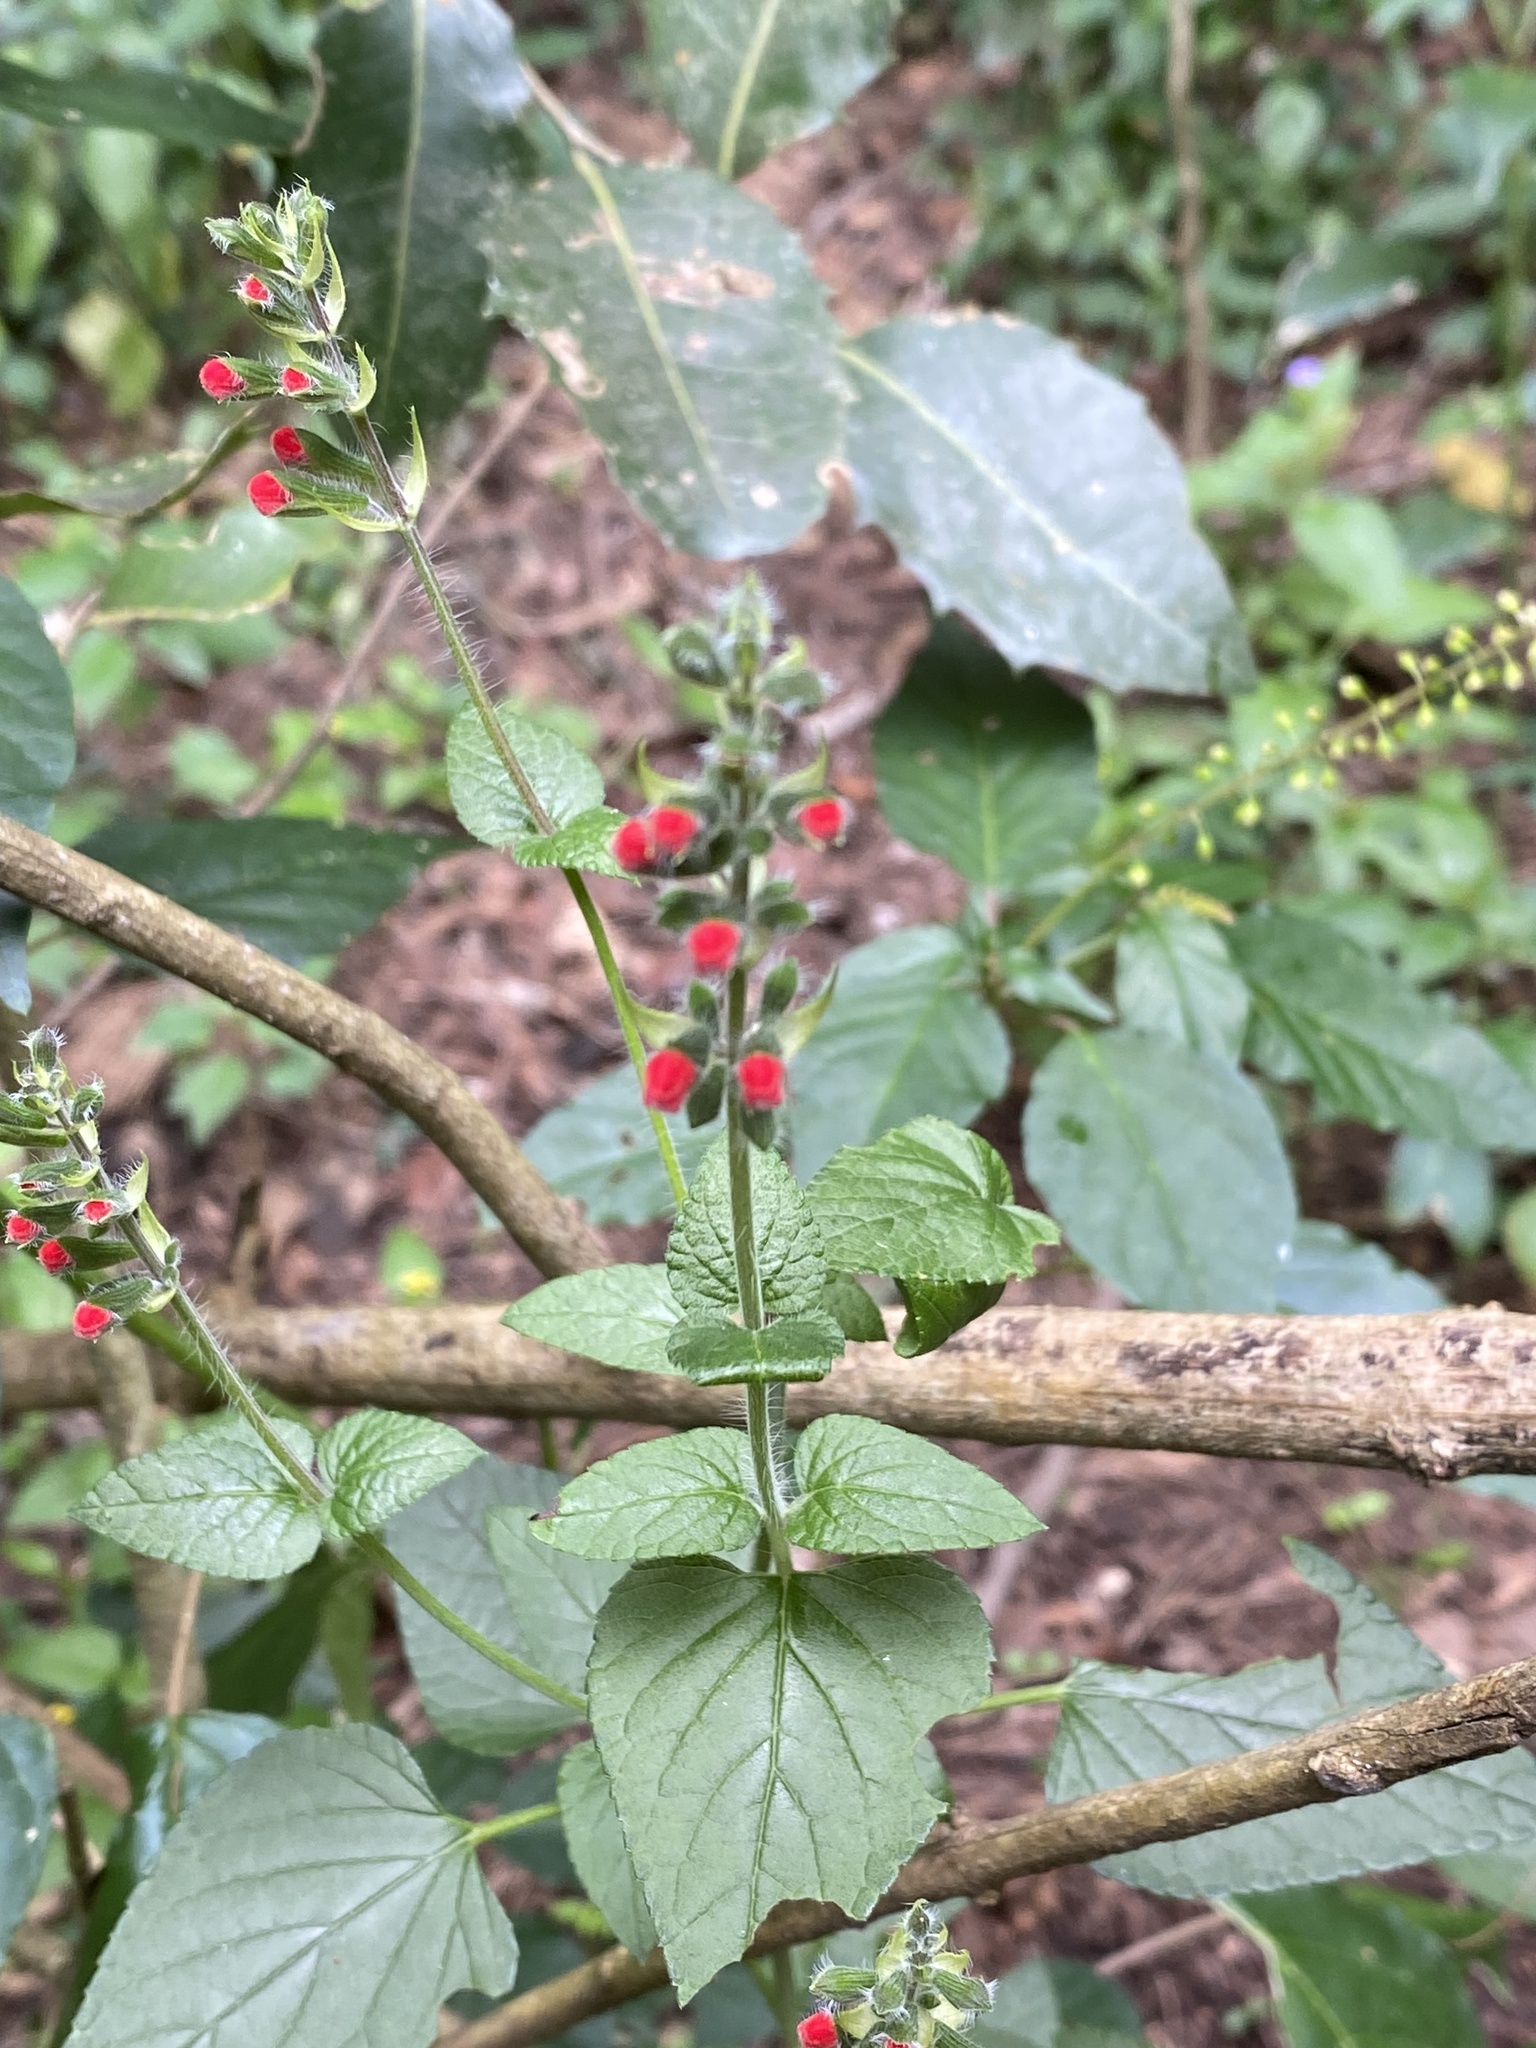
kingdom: Plantae
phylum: Tracheophyta
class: Magnoliopsida
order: Lamiales
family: Lamiaceae
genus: Salvia
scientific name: Salvia coccinea
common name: Blood sage
